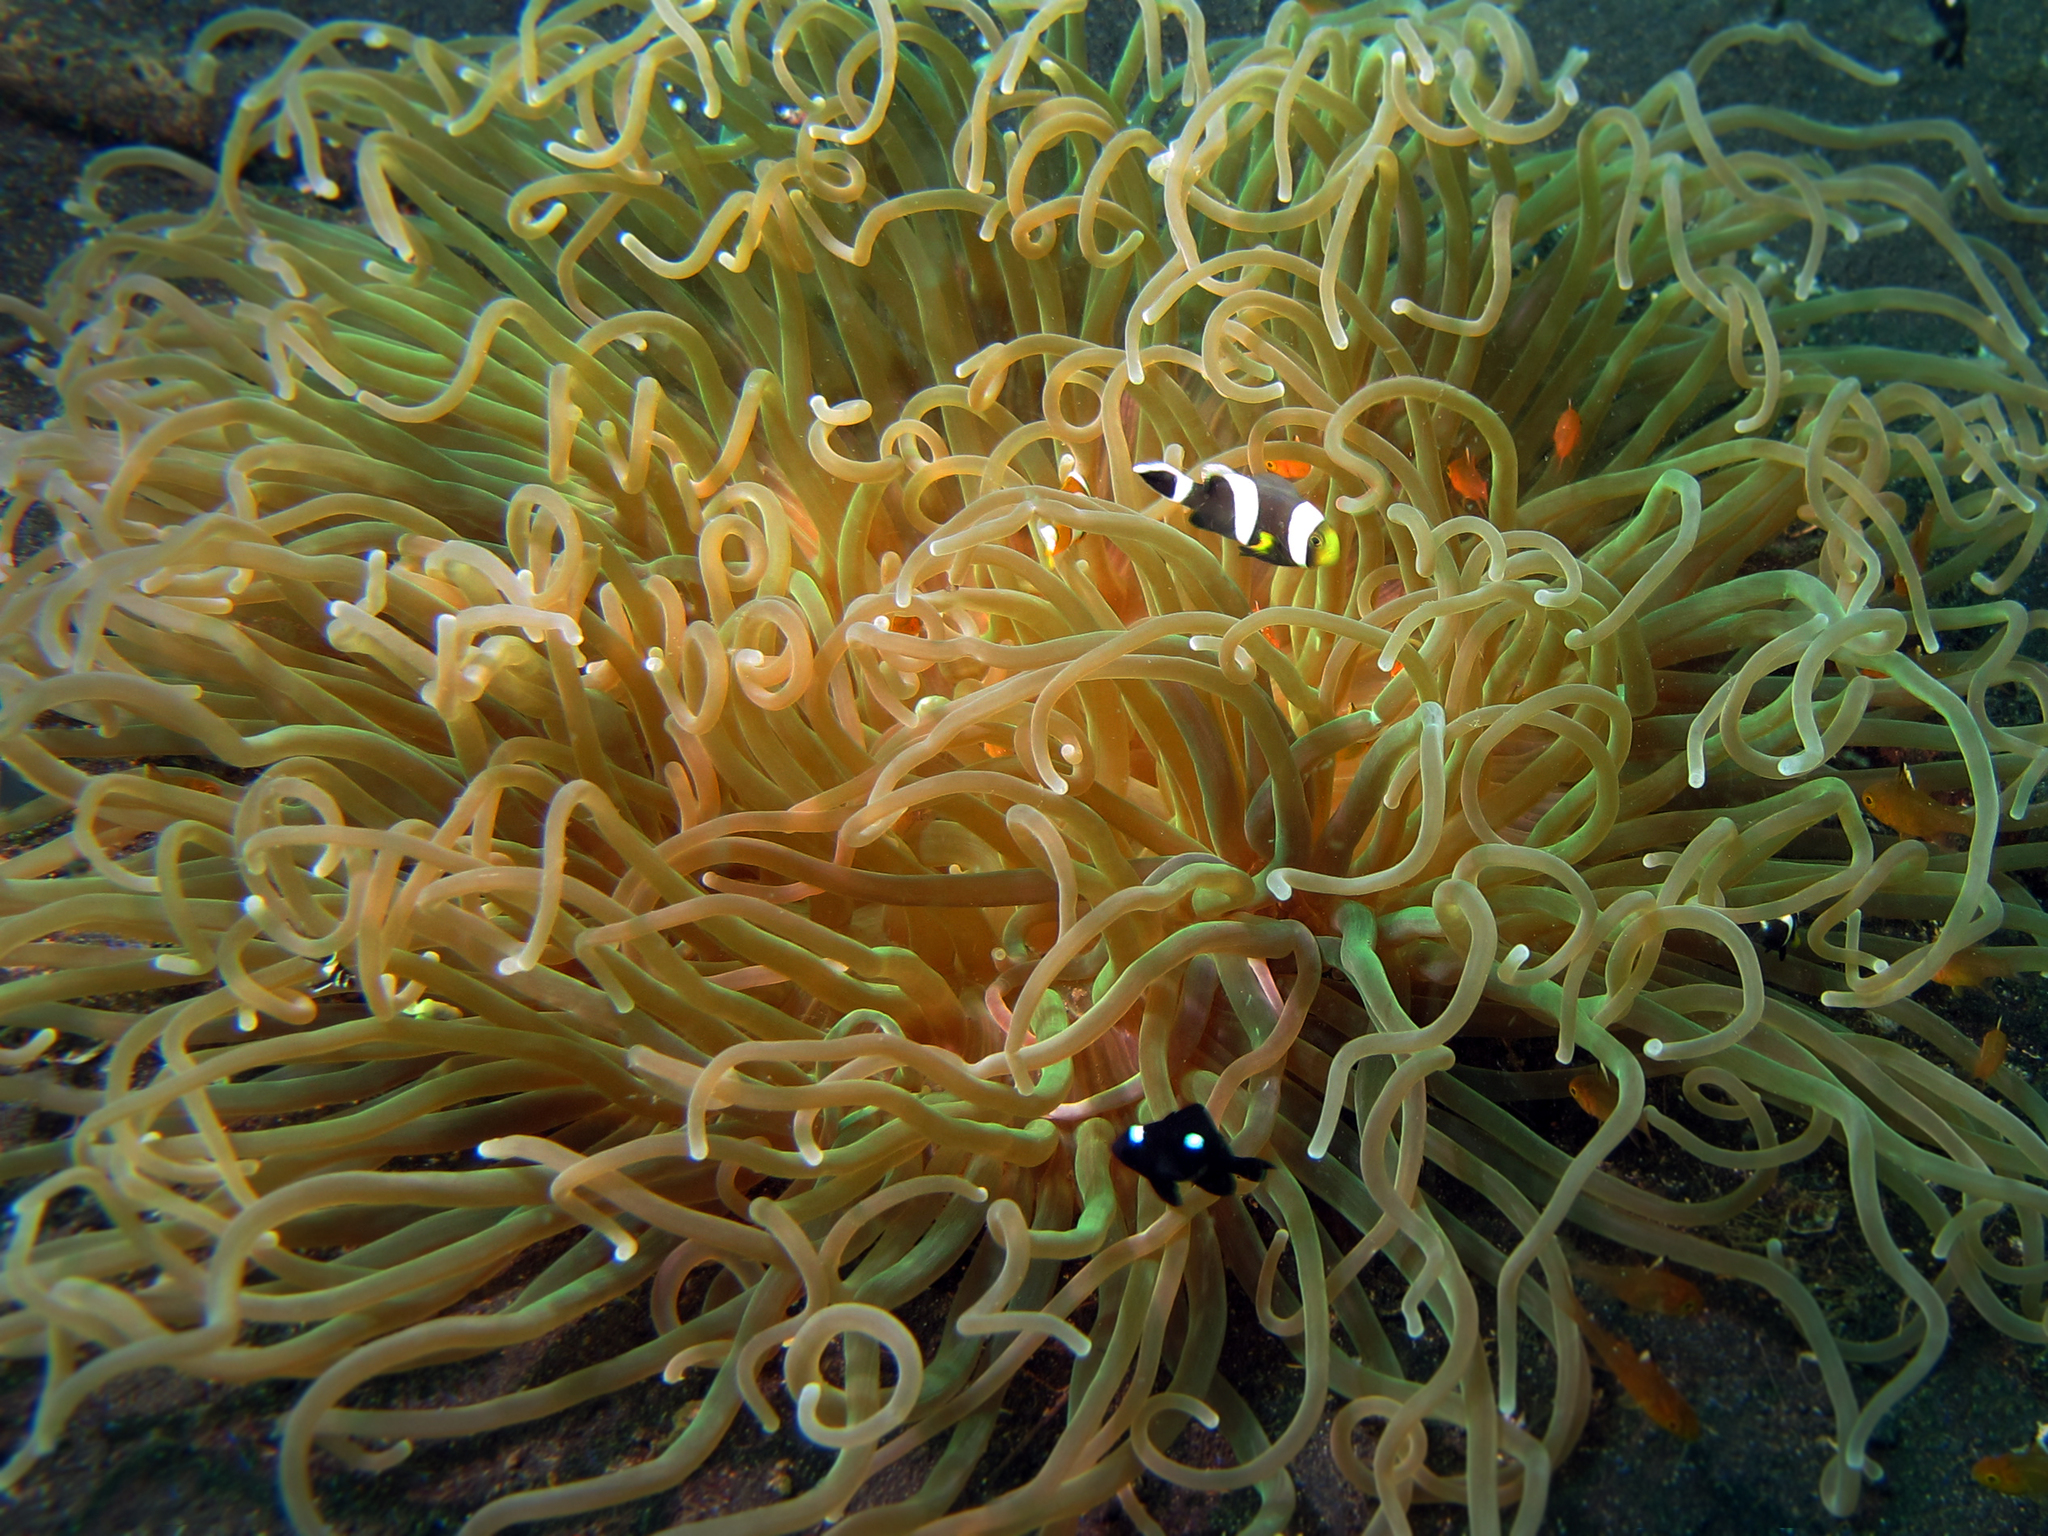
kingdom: Animalia
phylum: Chordata
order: Perciformes
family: Pomacentridae
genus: Dascyllus
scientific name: Dascyllus trimaculatus
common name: Threespot dascyllus
